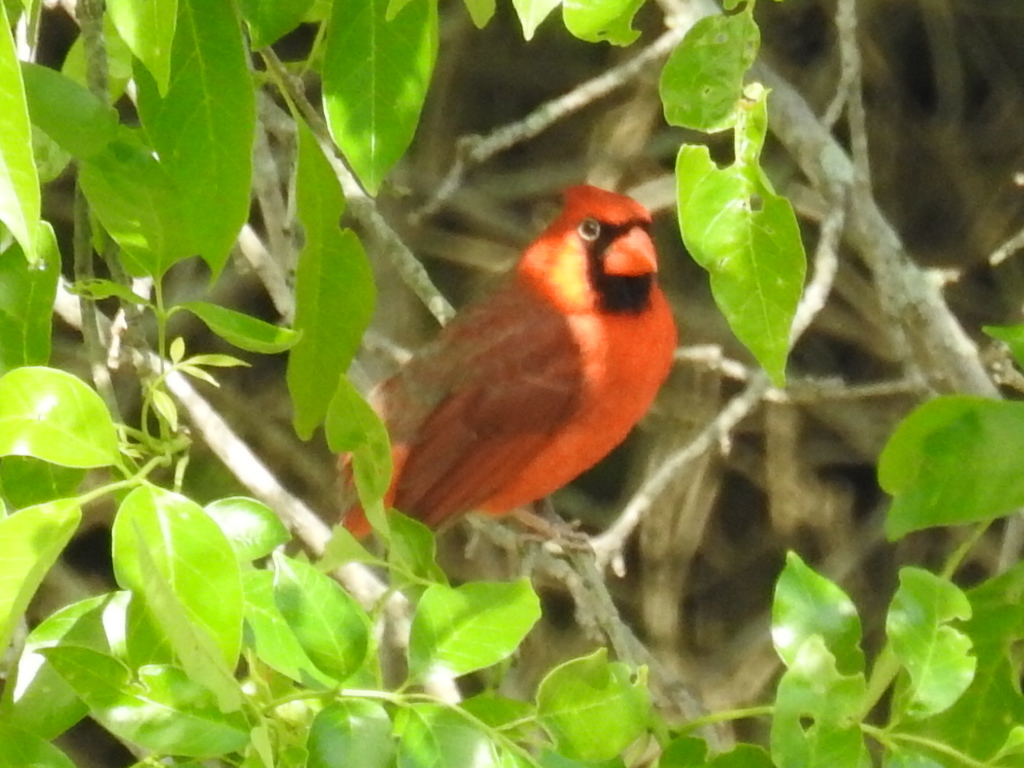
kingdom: Animalia
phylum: Chordata
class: Aves
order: Passeriformes
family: Cardinalidae
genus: Cardinalis
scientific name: Cardinalis cardinalis
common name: Northern cardinal
